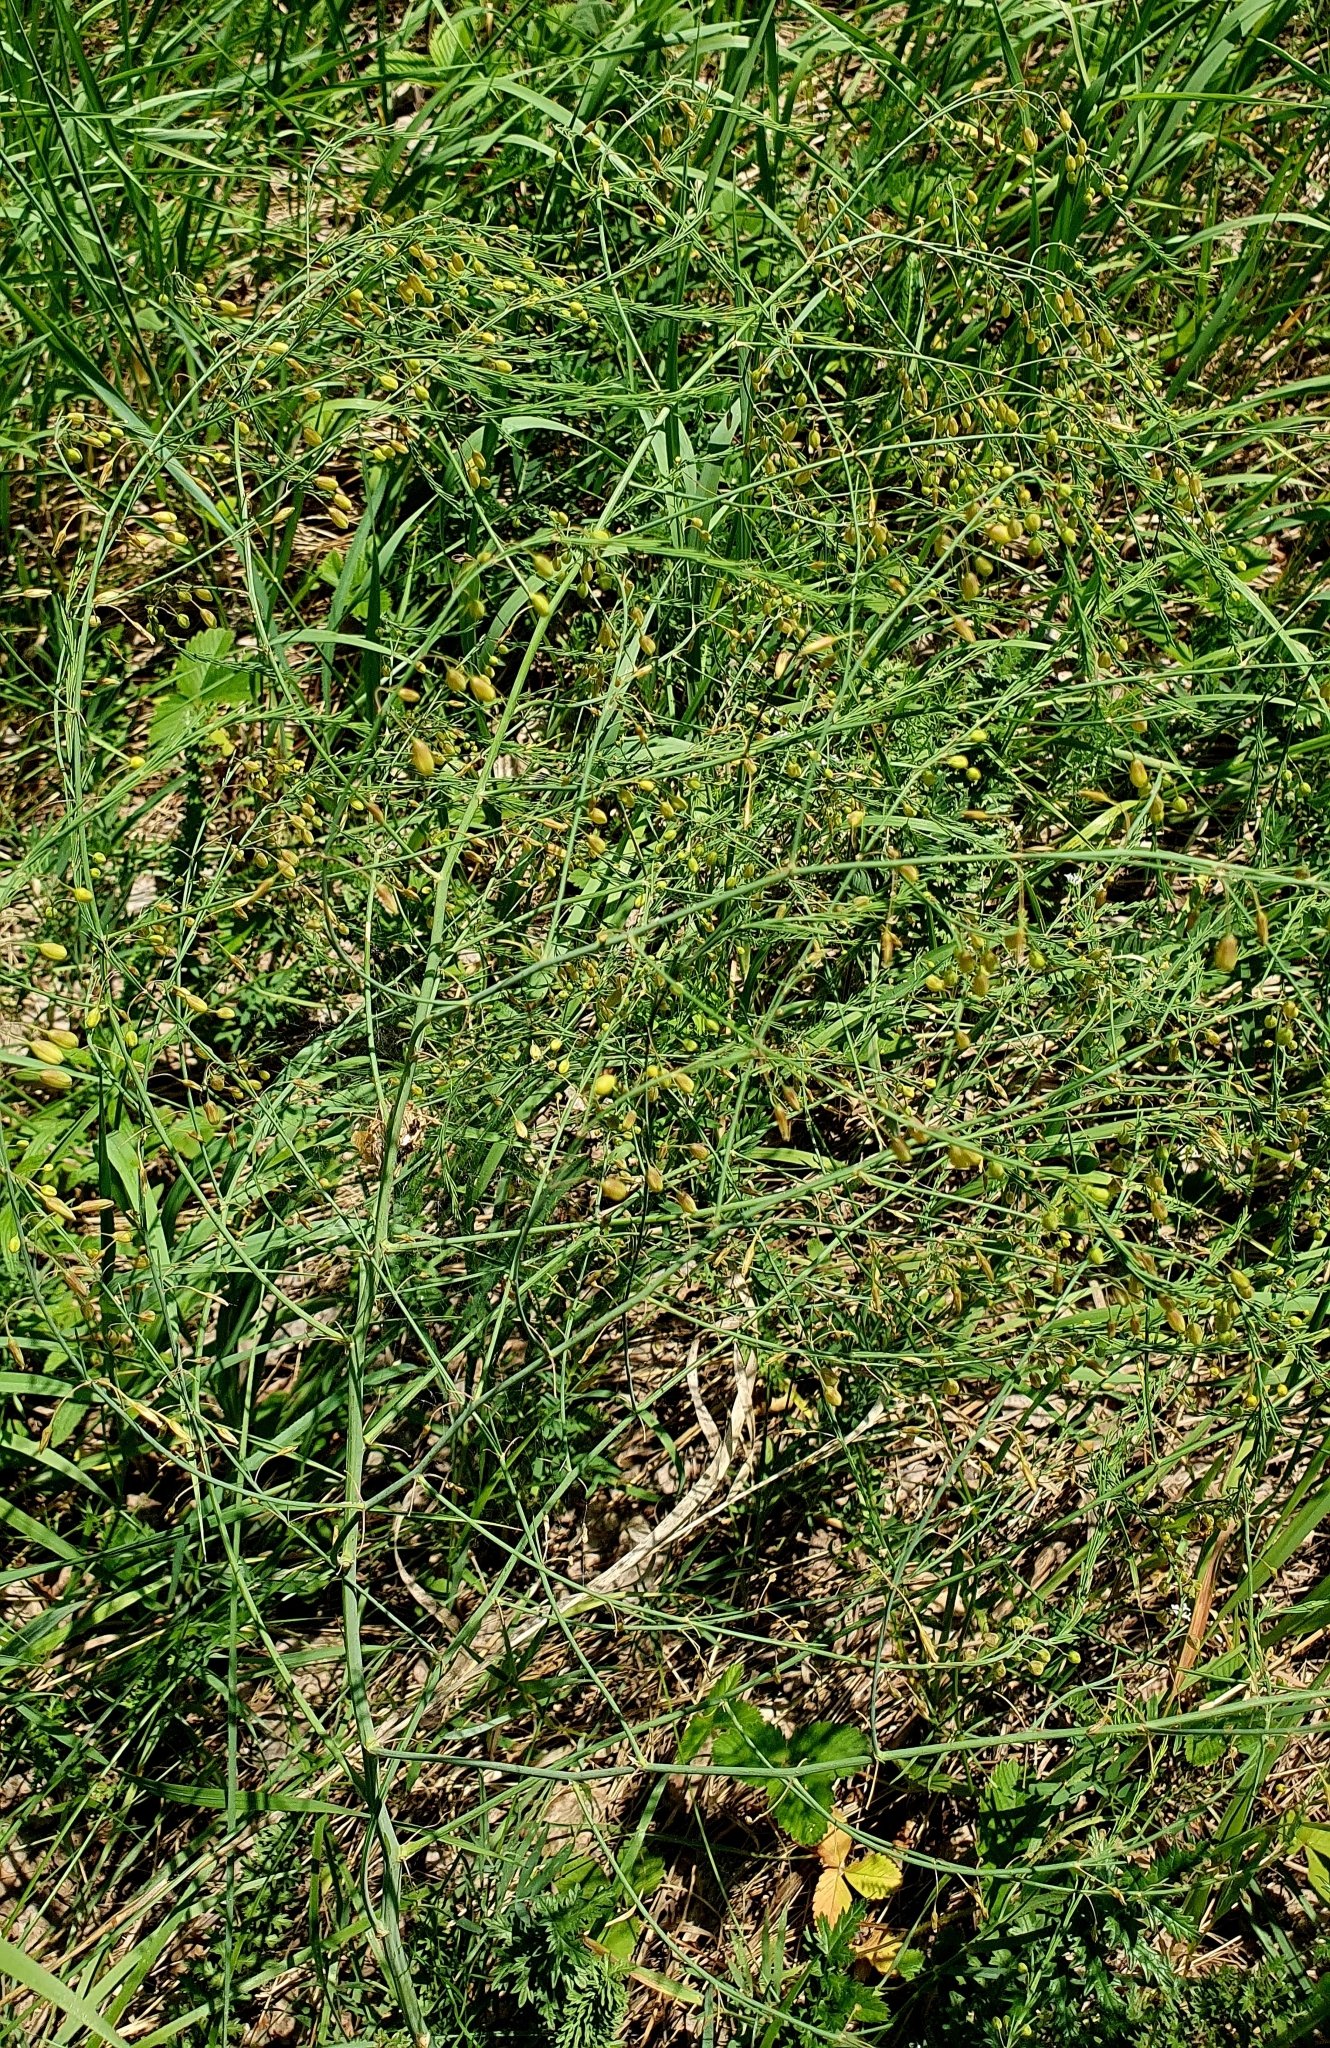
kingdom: Plantae
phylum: Tracheophyta
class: Liliopsida
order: Asparagales
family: Asparagaceae
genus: Asparagus
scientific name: Asparagus officinalis
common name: Garden asparagus
